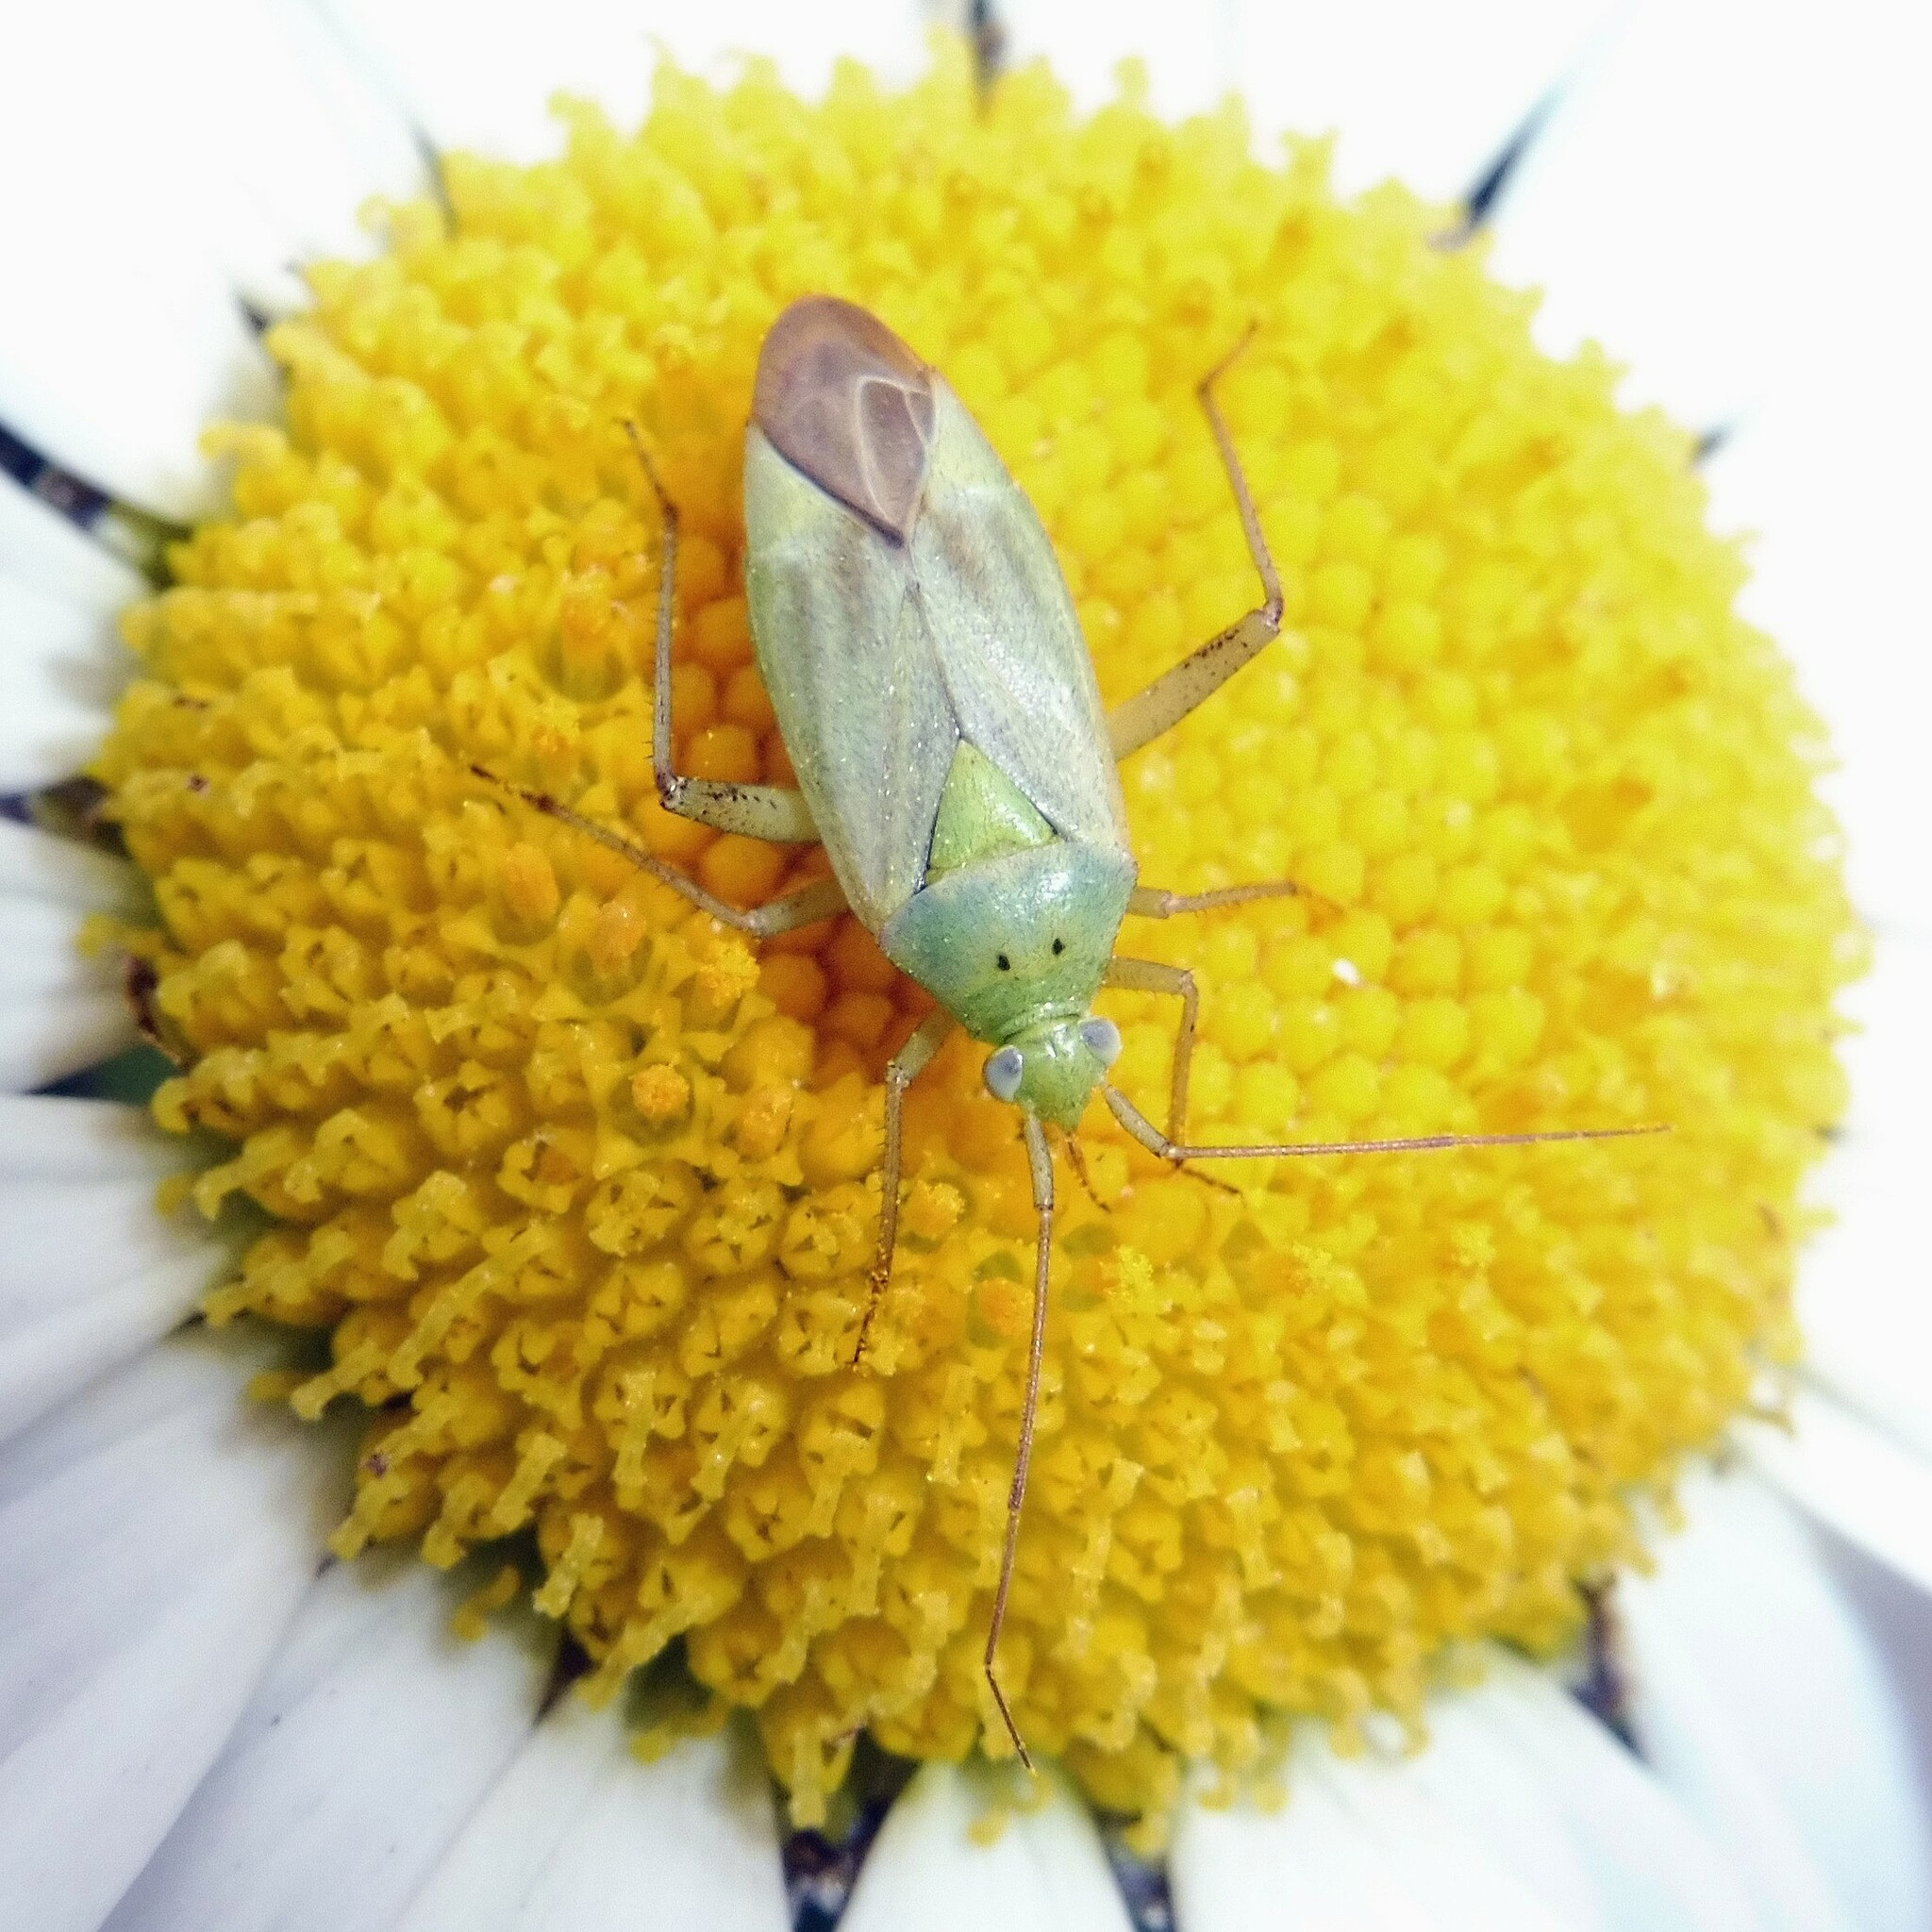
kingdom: Animalia
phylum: Arthropoda
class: Insecta
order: Hemiptera
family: Miridae
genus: Closterotomus
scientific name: Closterotomus norvegicus
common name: Plant bug
